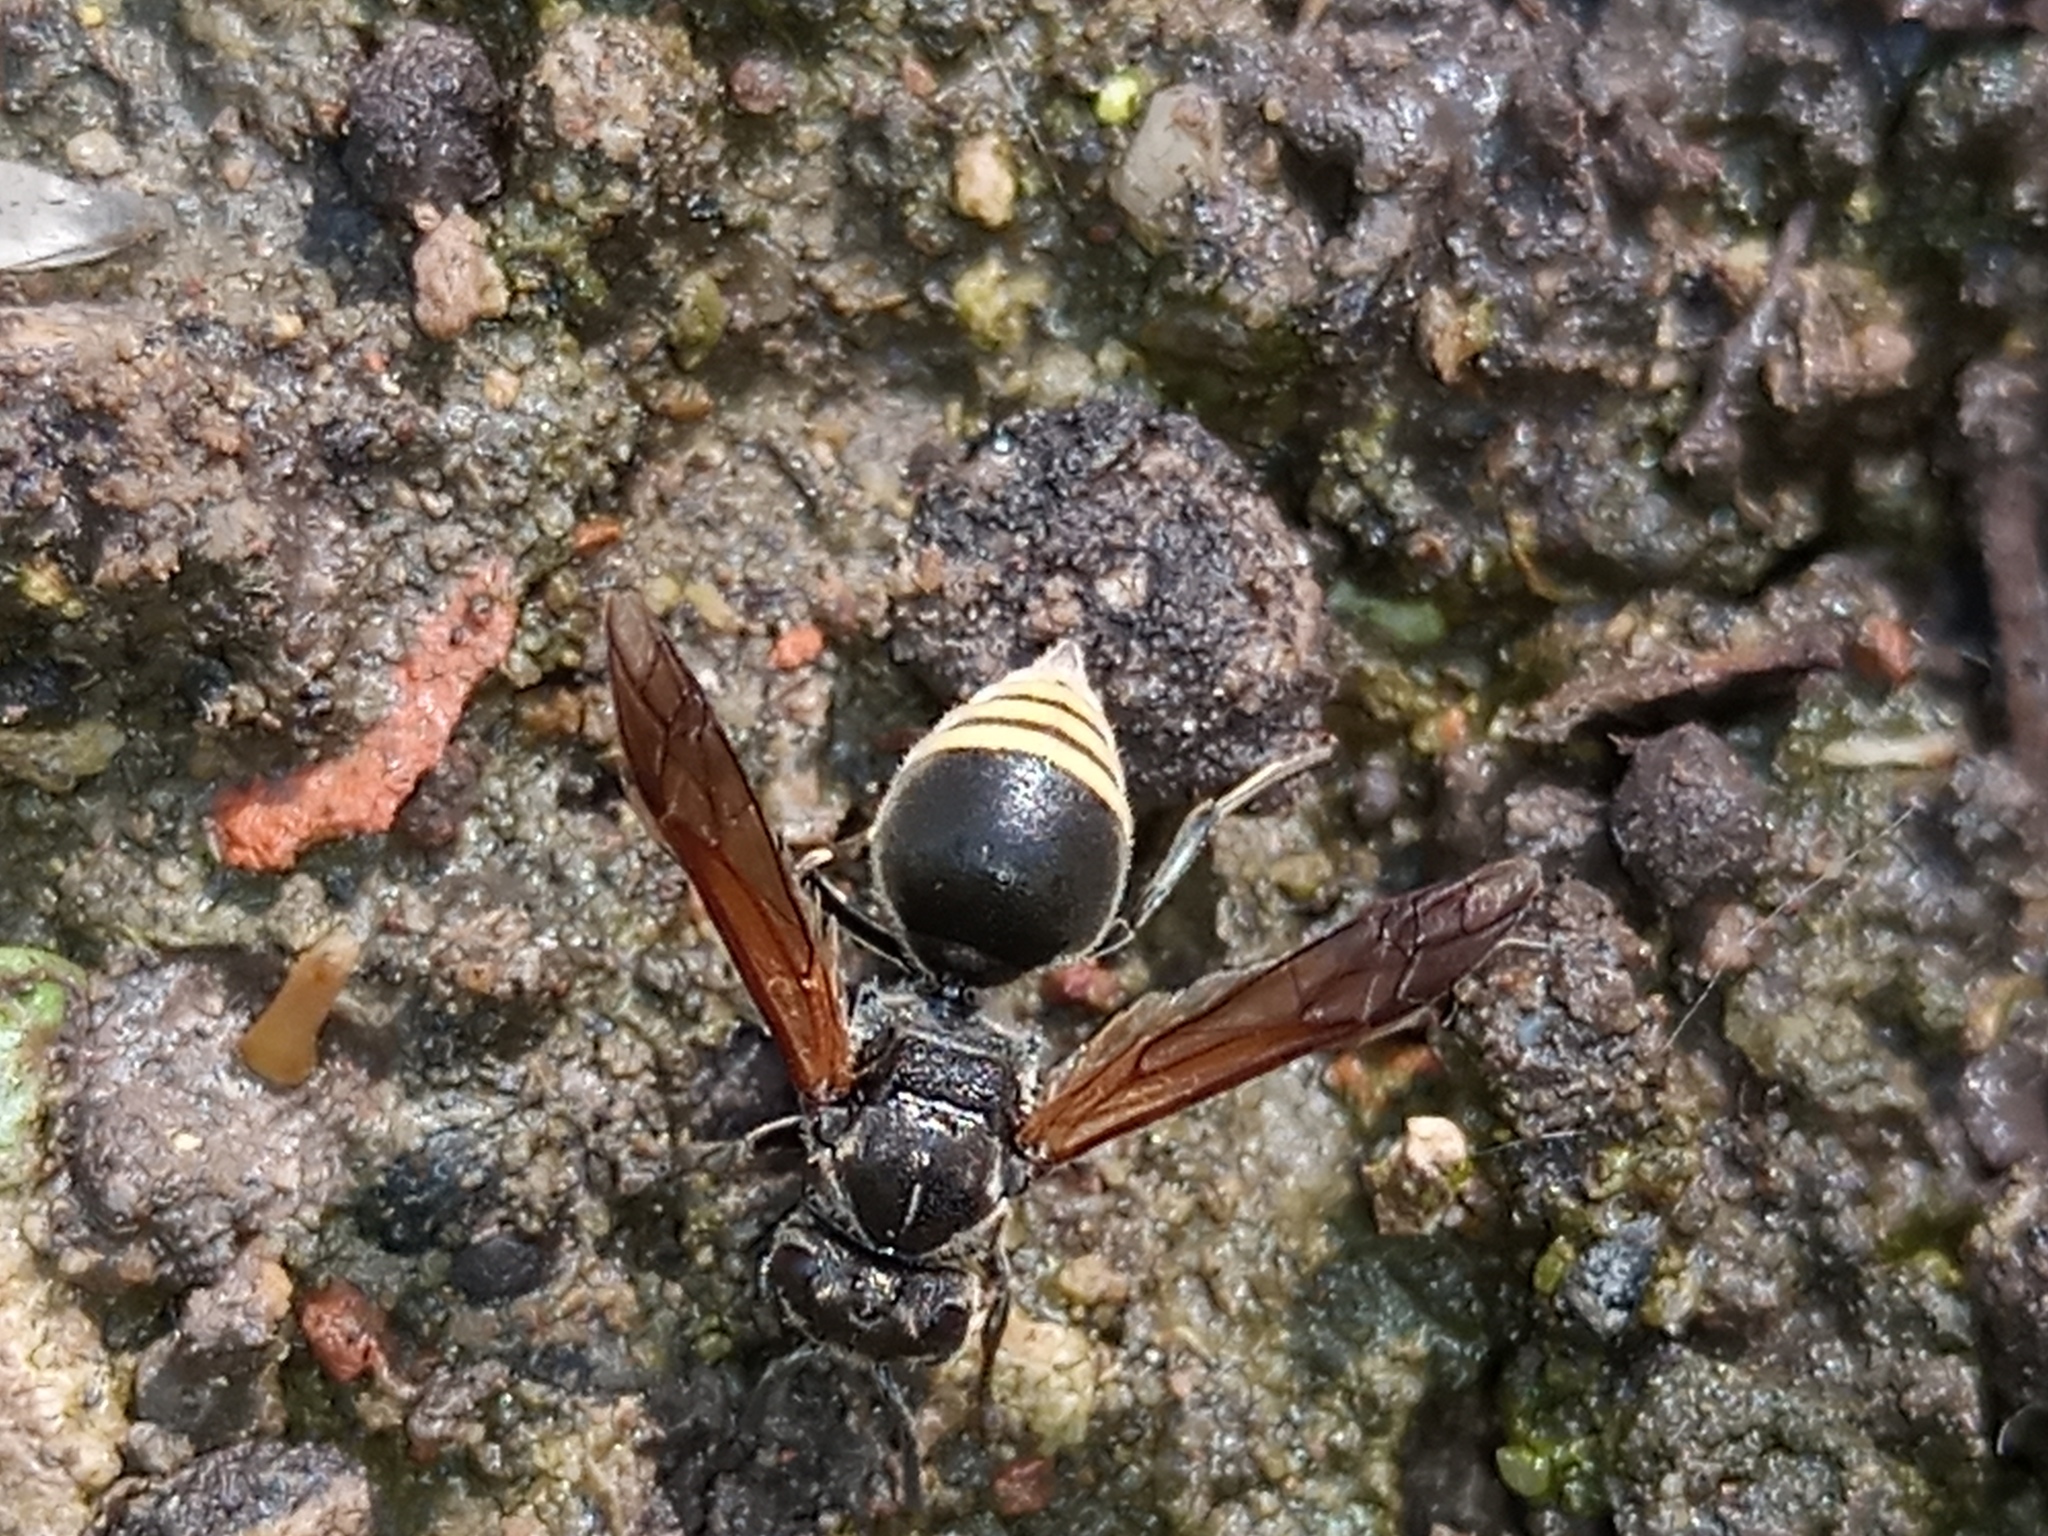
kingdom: Animalia
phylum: Arthropoda
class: Insecta
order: Hymenoptera
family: Vespidae
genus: Brachygastra
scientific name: Brachygastra lecheguana
